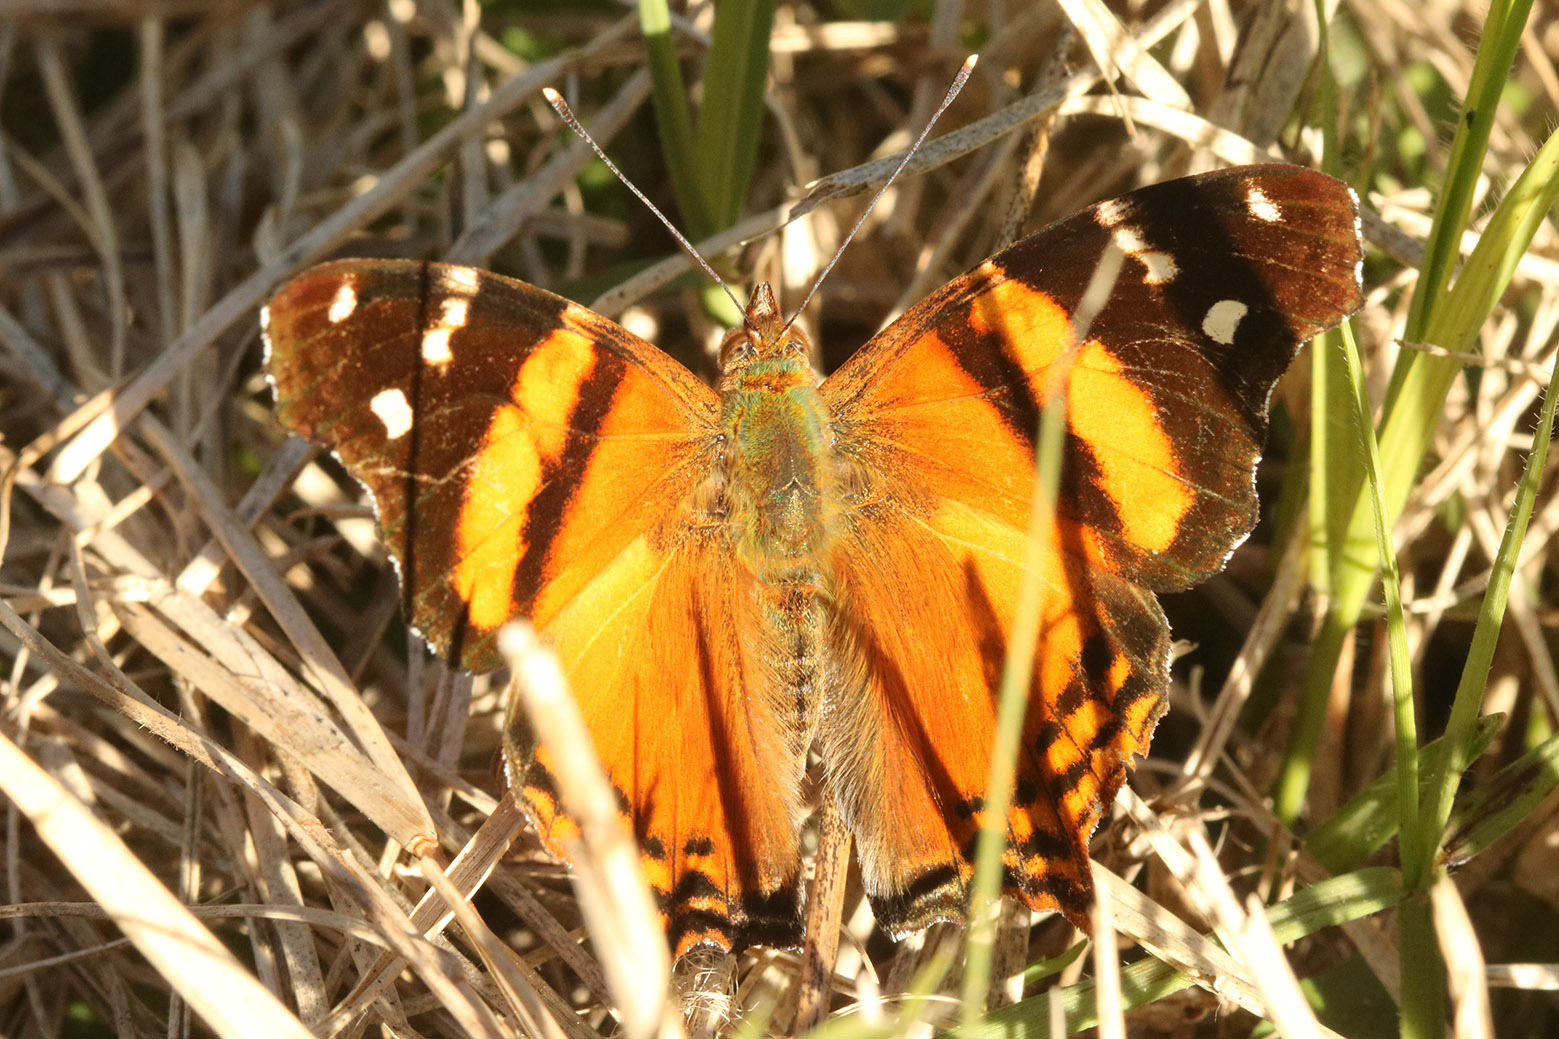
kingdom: Animalia
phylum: Arthropoda
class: Insecta
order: Lepidoptera
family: Nymphalidae
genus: Hypanartia
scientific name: Hypanartia bella
